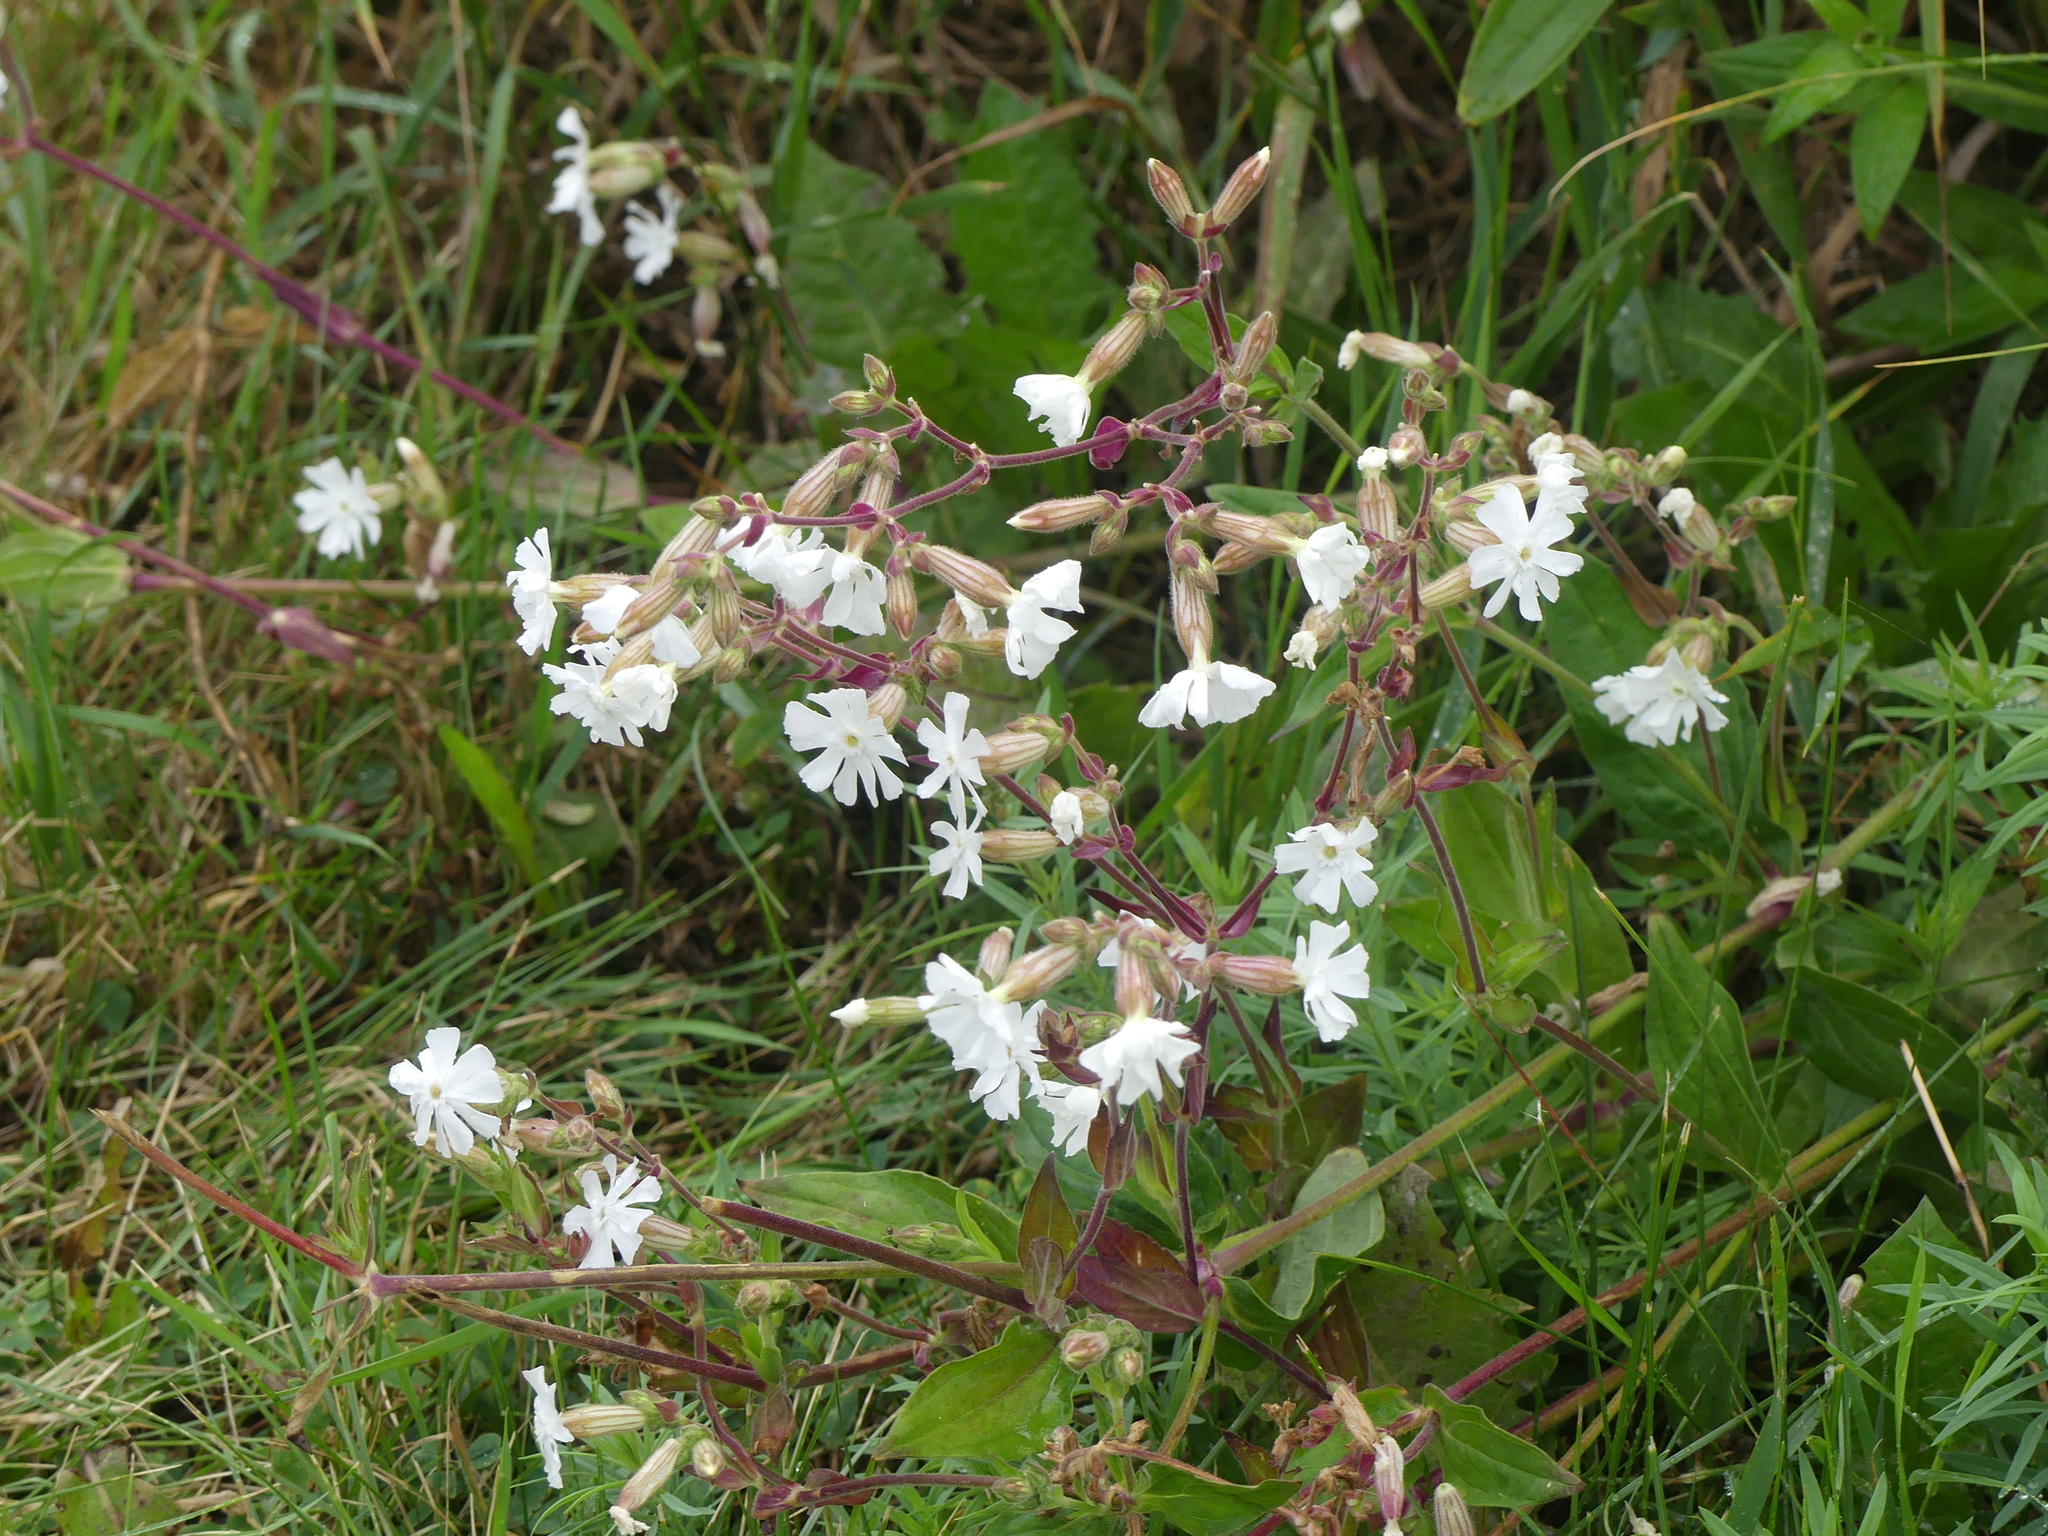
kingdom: Plantae
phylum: Tracheophyta
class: Magnoliopsida
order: Caryophyllales
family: Caryophyllaceae
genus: Silene
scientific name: Silene latifolia
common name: White campion
